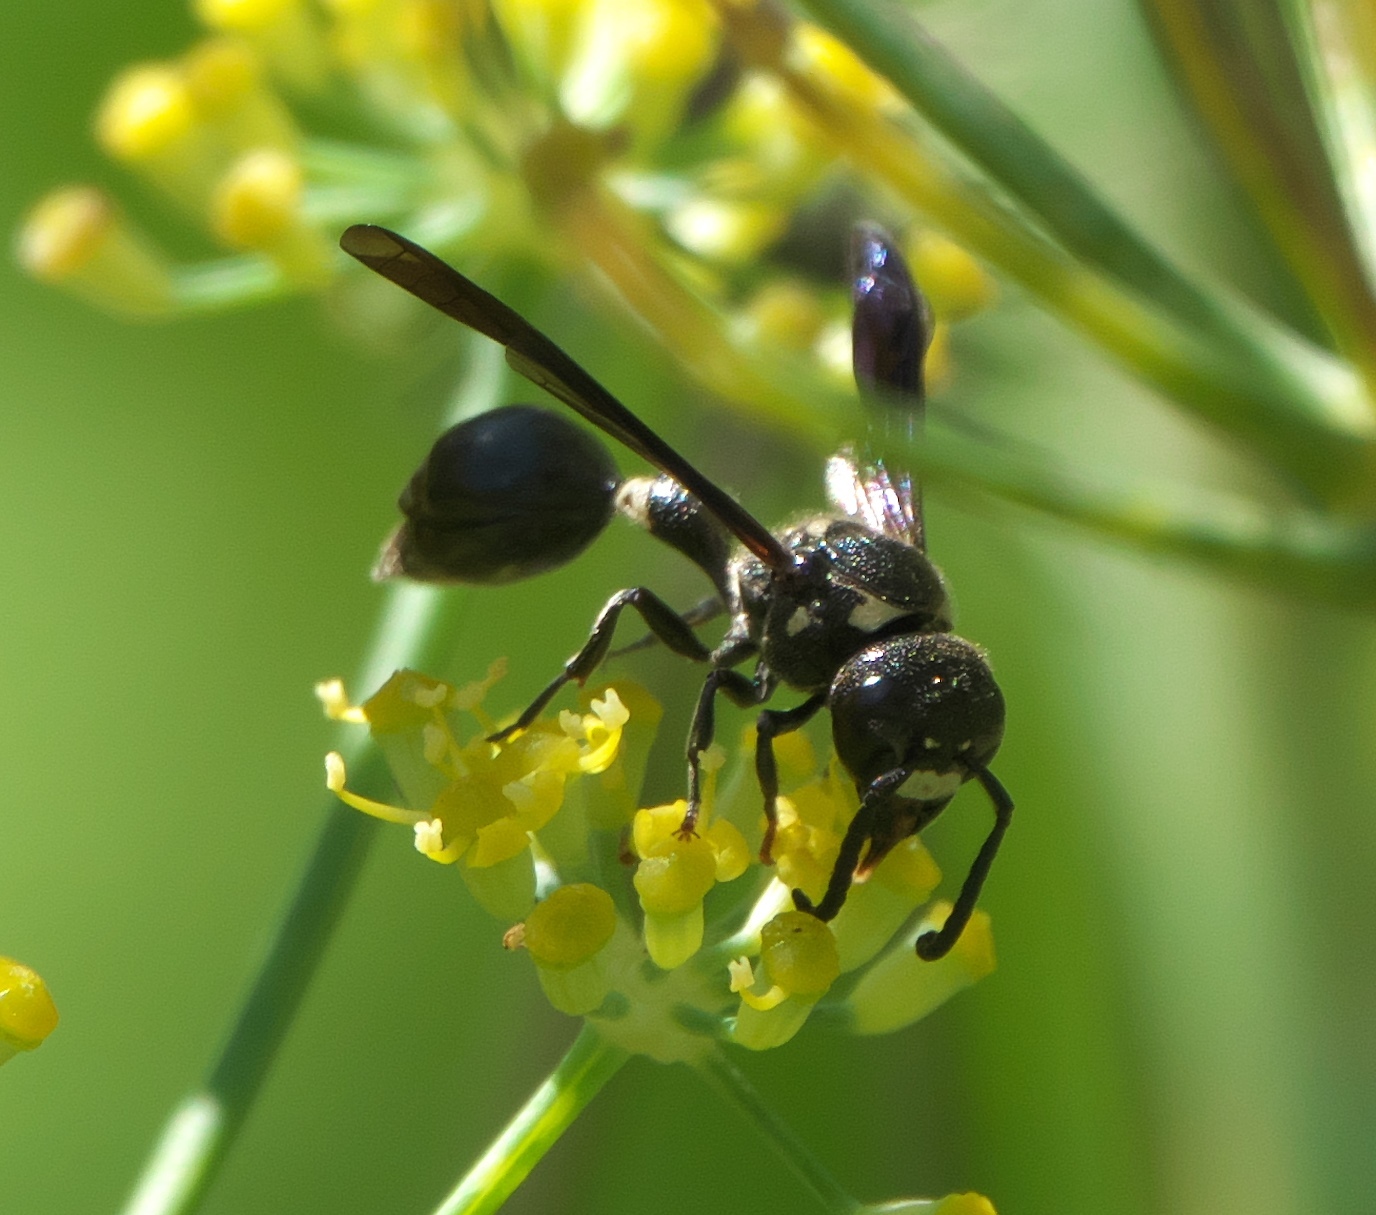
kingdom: Animalia
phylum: Arthropoda
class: Insecta
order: Hymenoptera
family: Eumenidae
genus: Zethus
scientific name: Zethus spinipes
